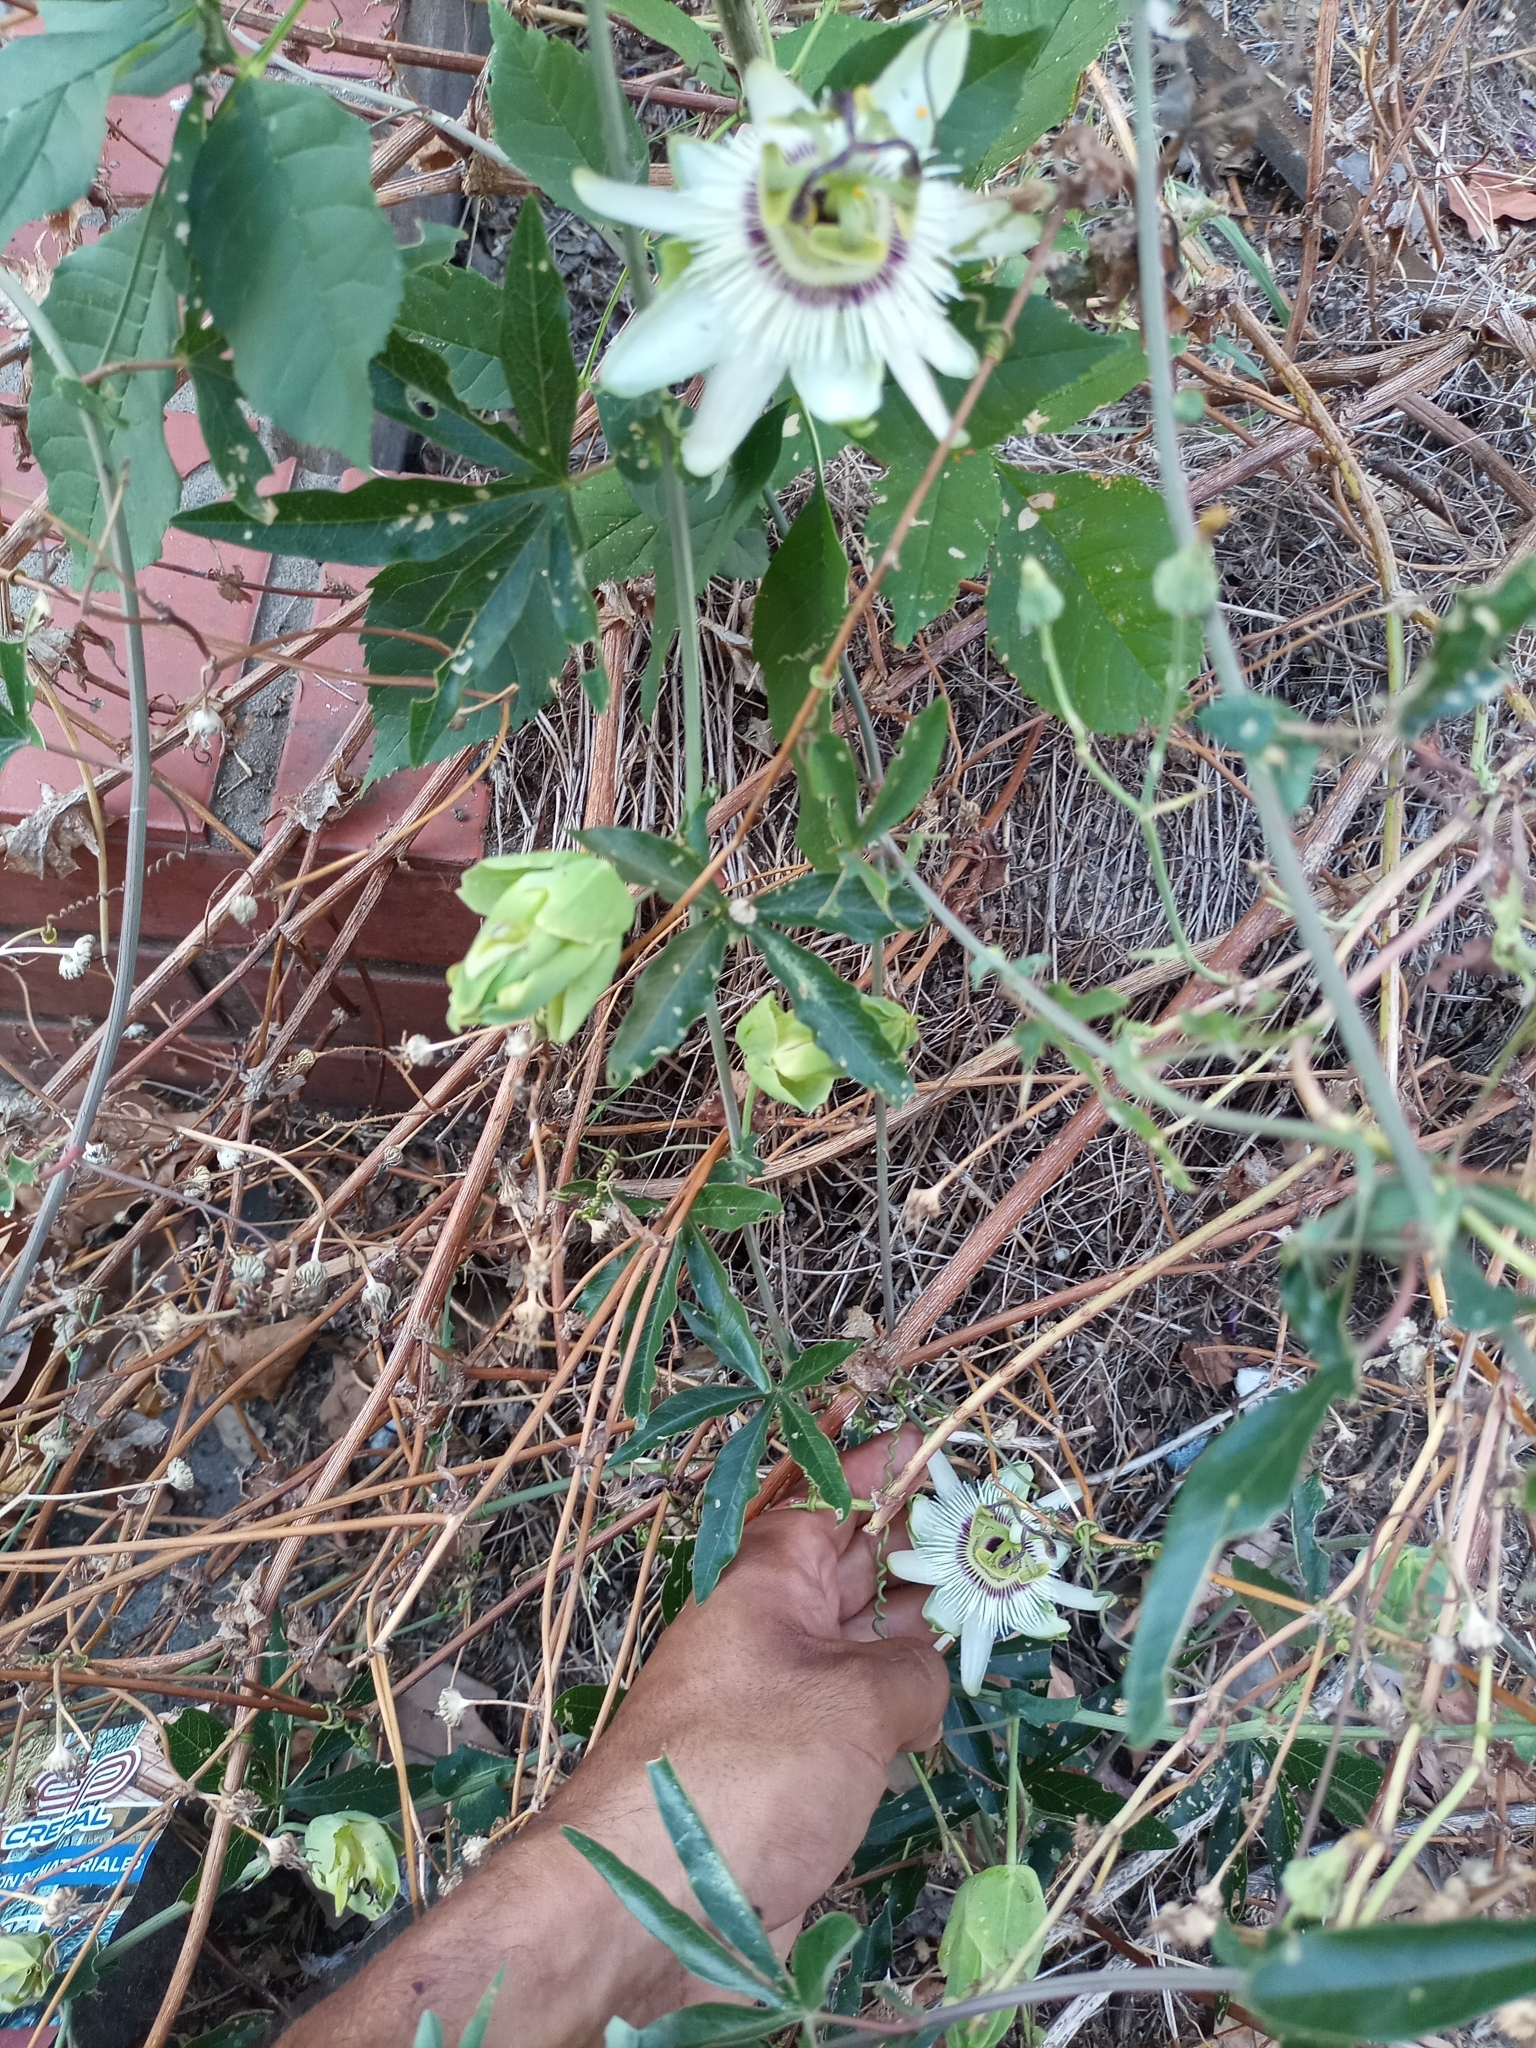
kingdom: Plantae
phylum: Tracheophyta
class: Magnoliopsida
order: Malpighiales
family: Passifloraceae
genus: Passiflora
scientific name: Passiflora caerulea
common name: Blue passionflower
